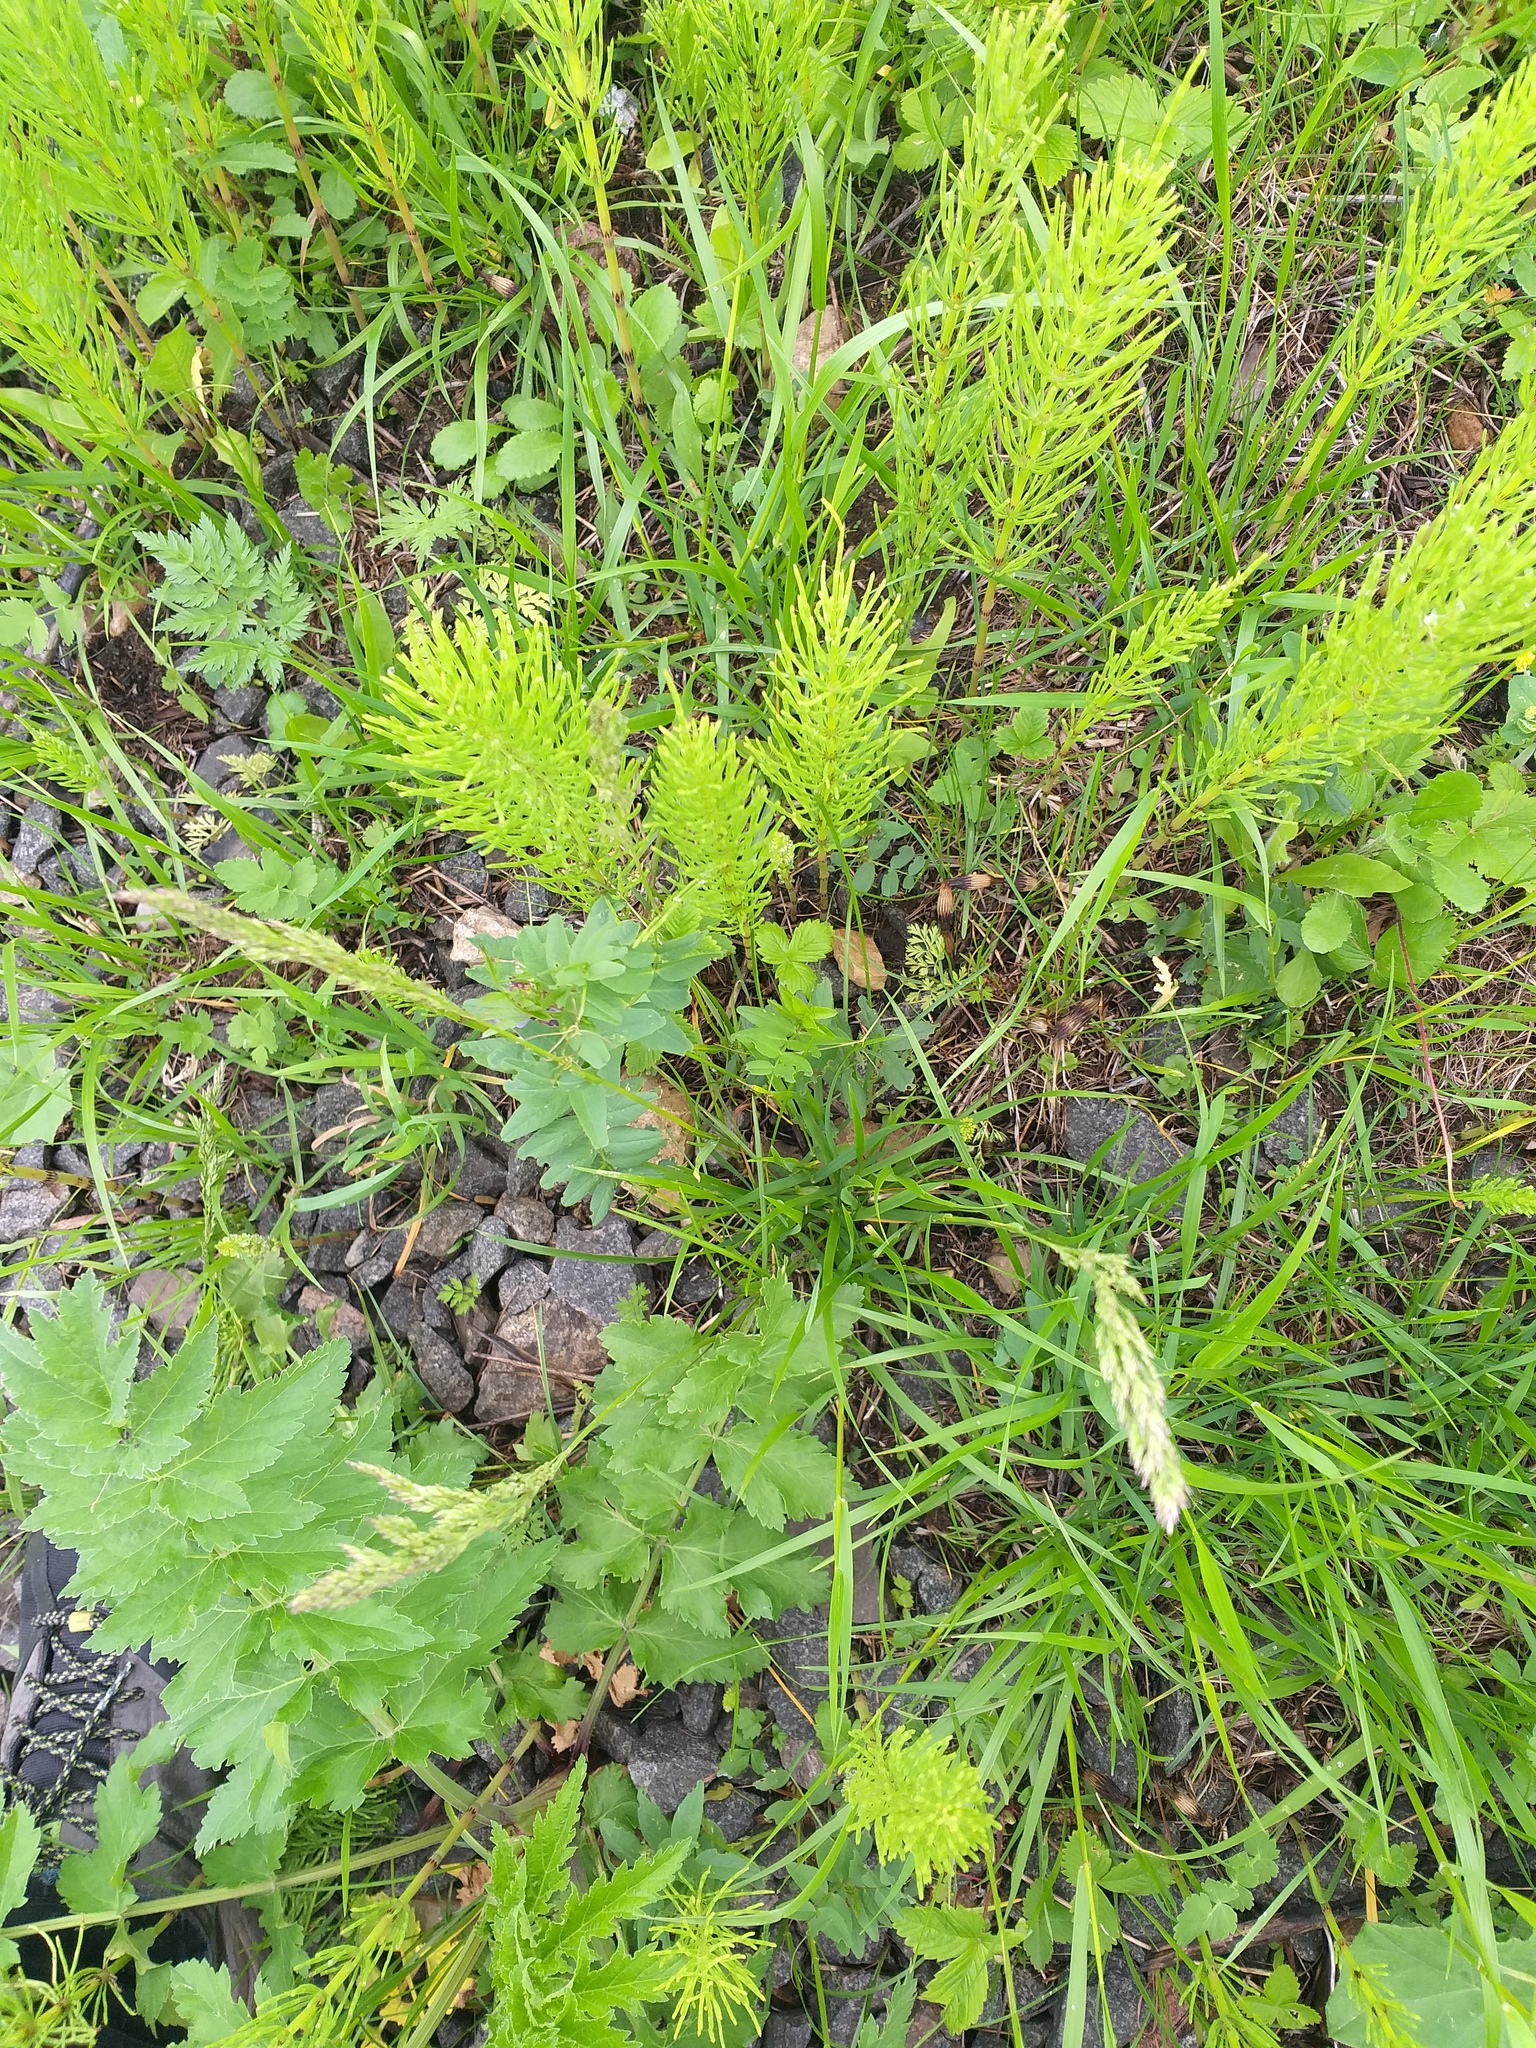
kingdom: Plantae
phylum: Tracheophyta
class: Liliopsida
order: Poales
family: Poaceae
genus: Poa
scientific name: Poa pratensis
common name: Kentucky bluegrass
